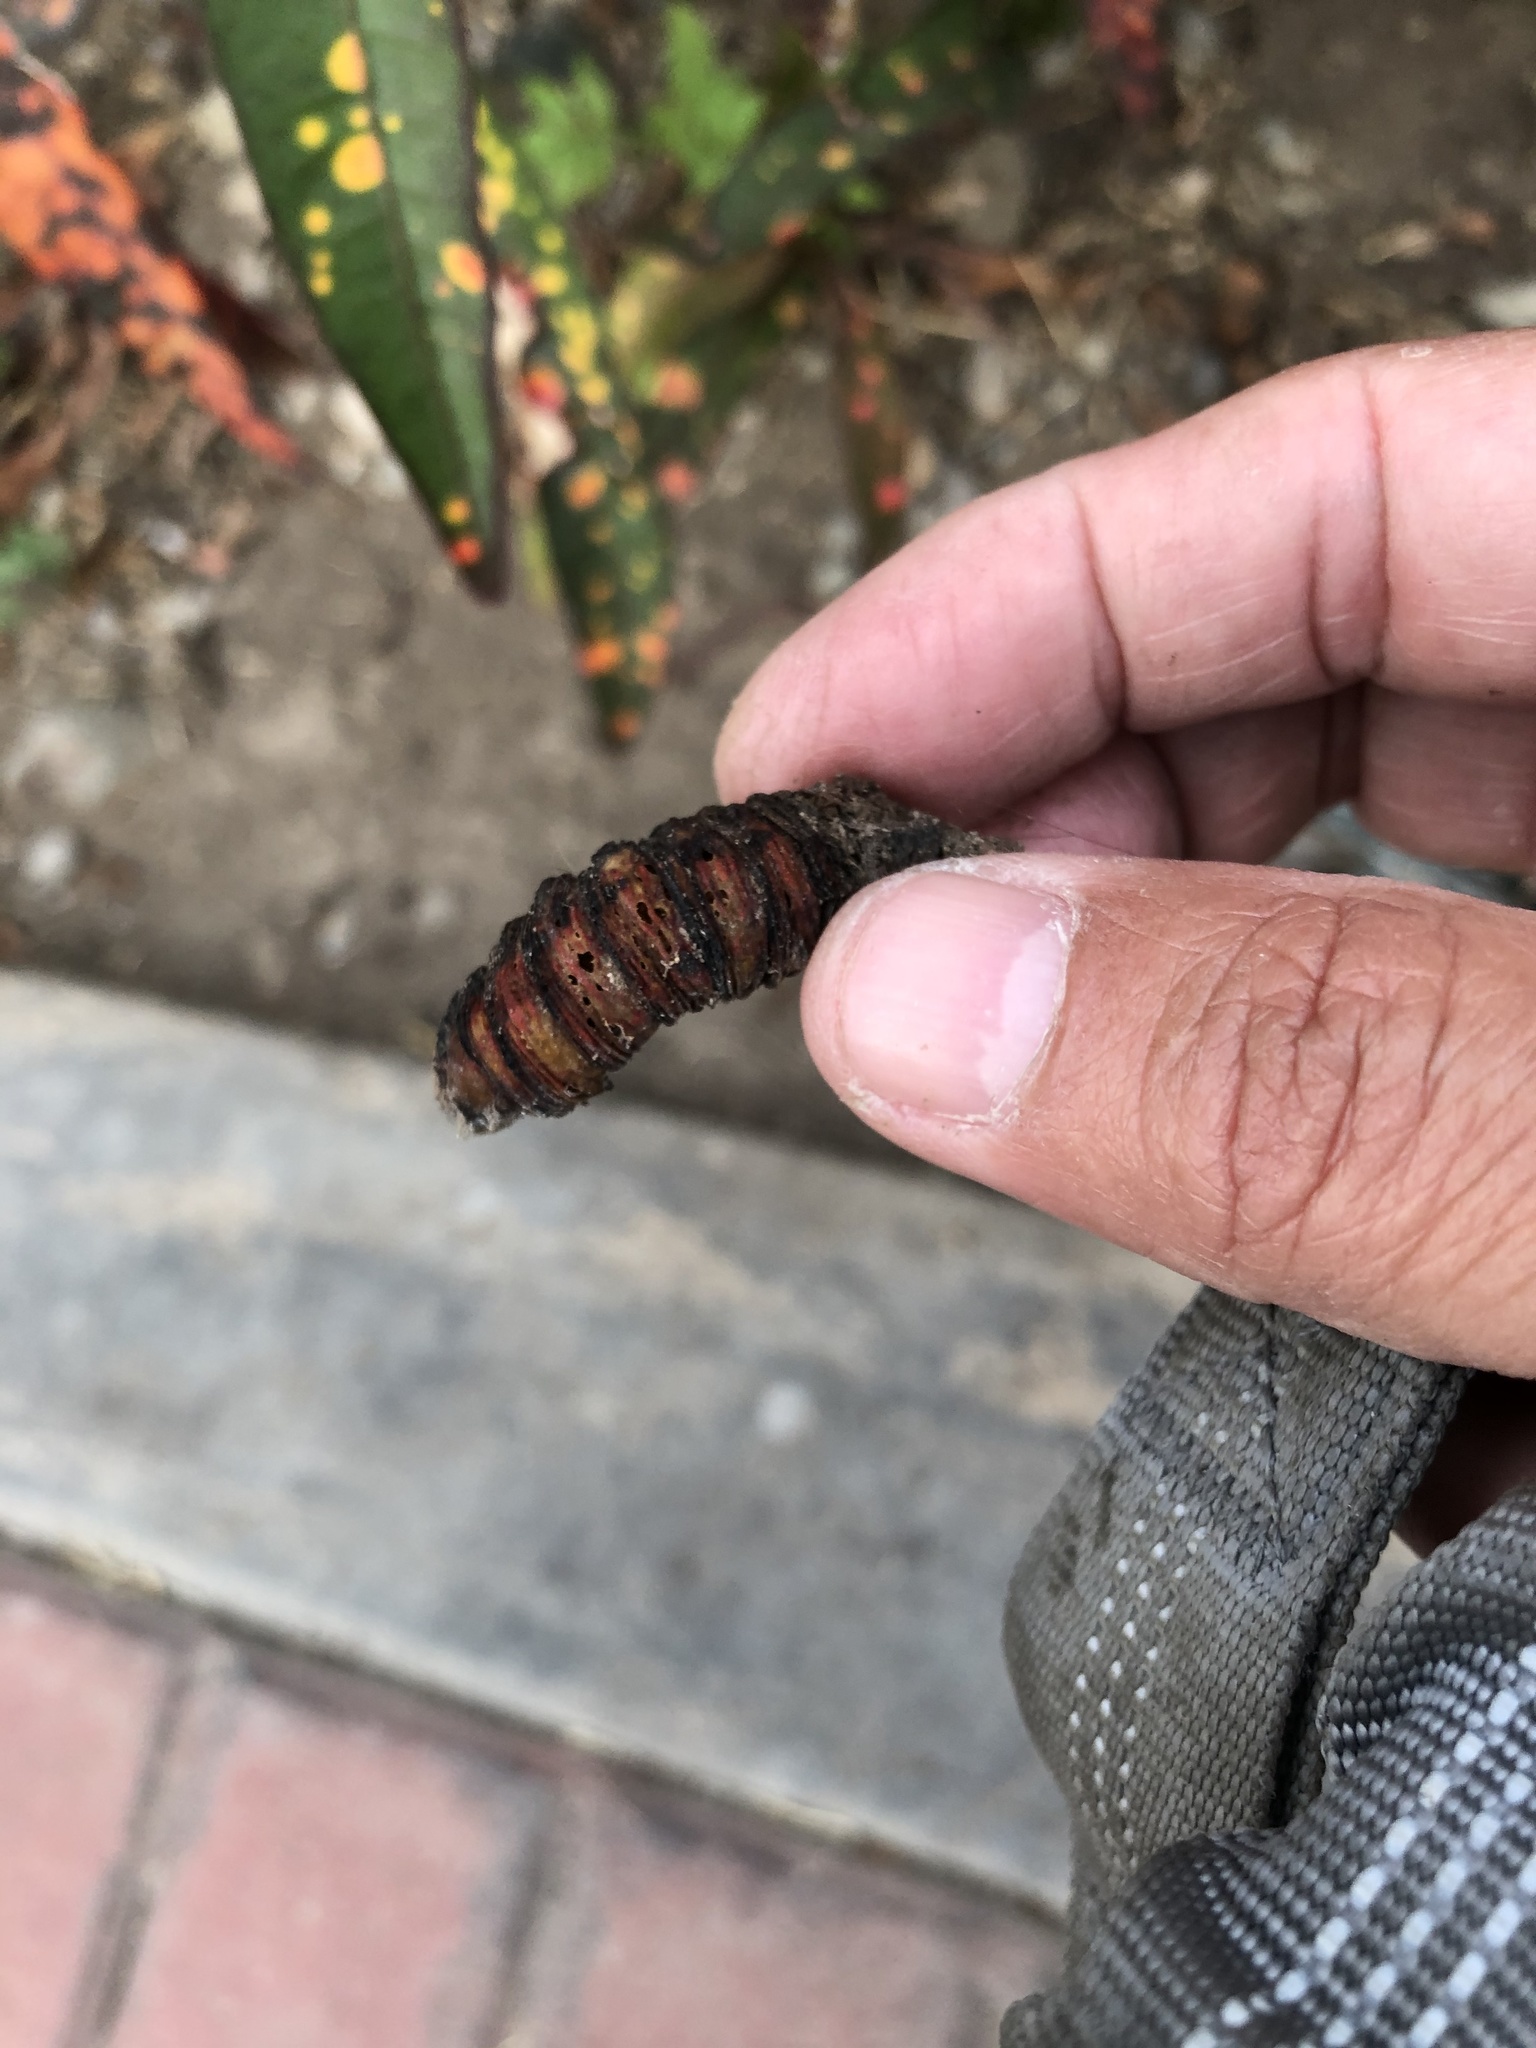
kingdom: Animalia
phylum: Arthropoda
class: Insecta
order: Lepidoptera
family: Sphingidae
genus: Pachylia
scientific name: Pachylia ficus
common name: Fig sphinx
